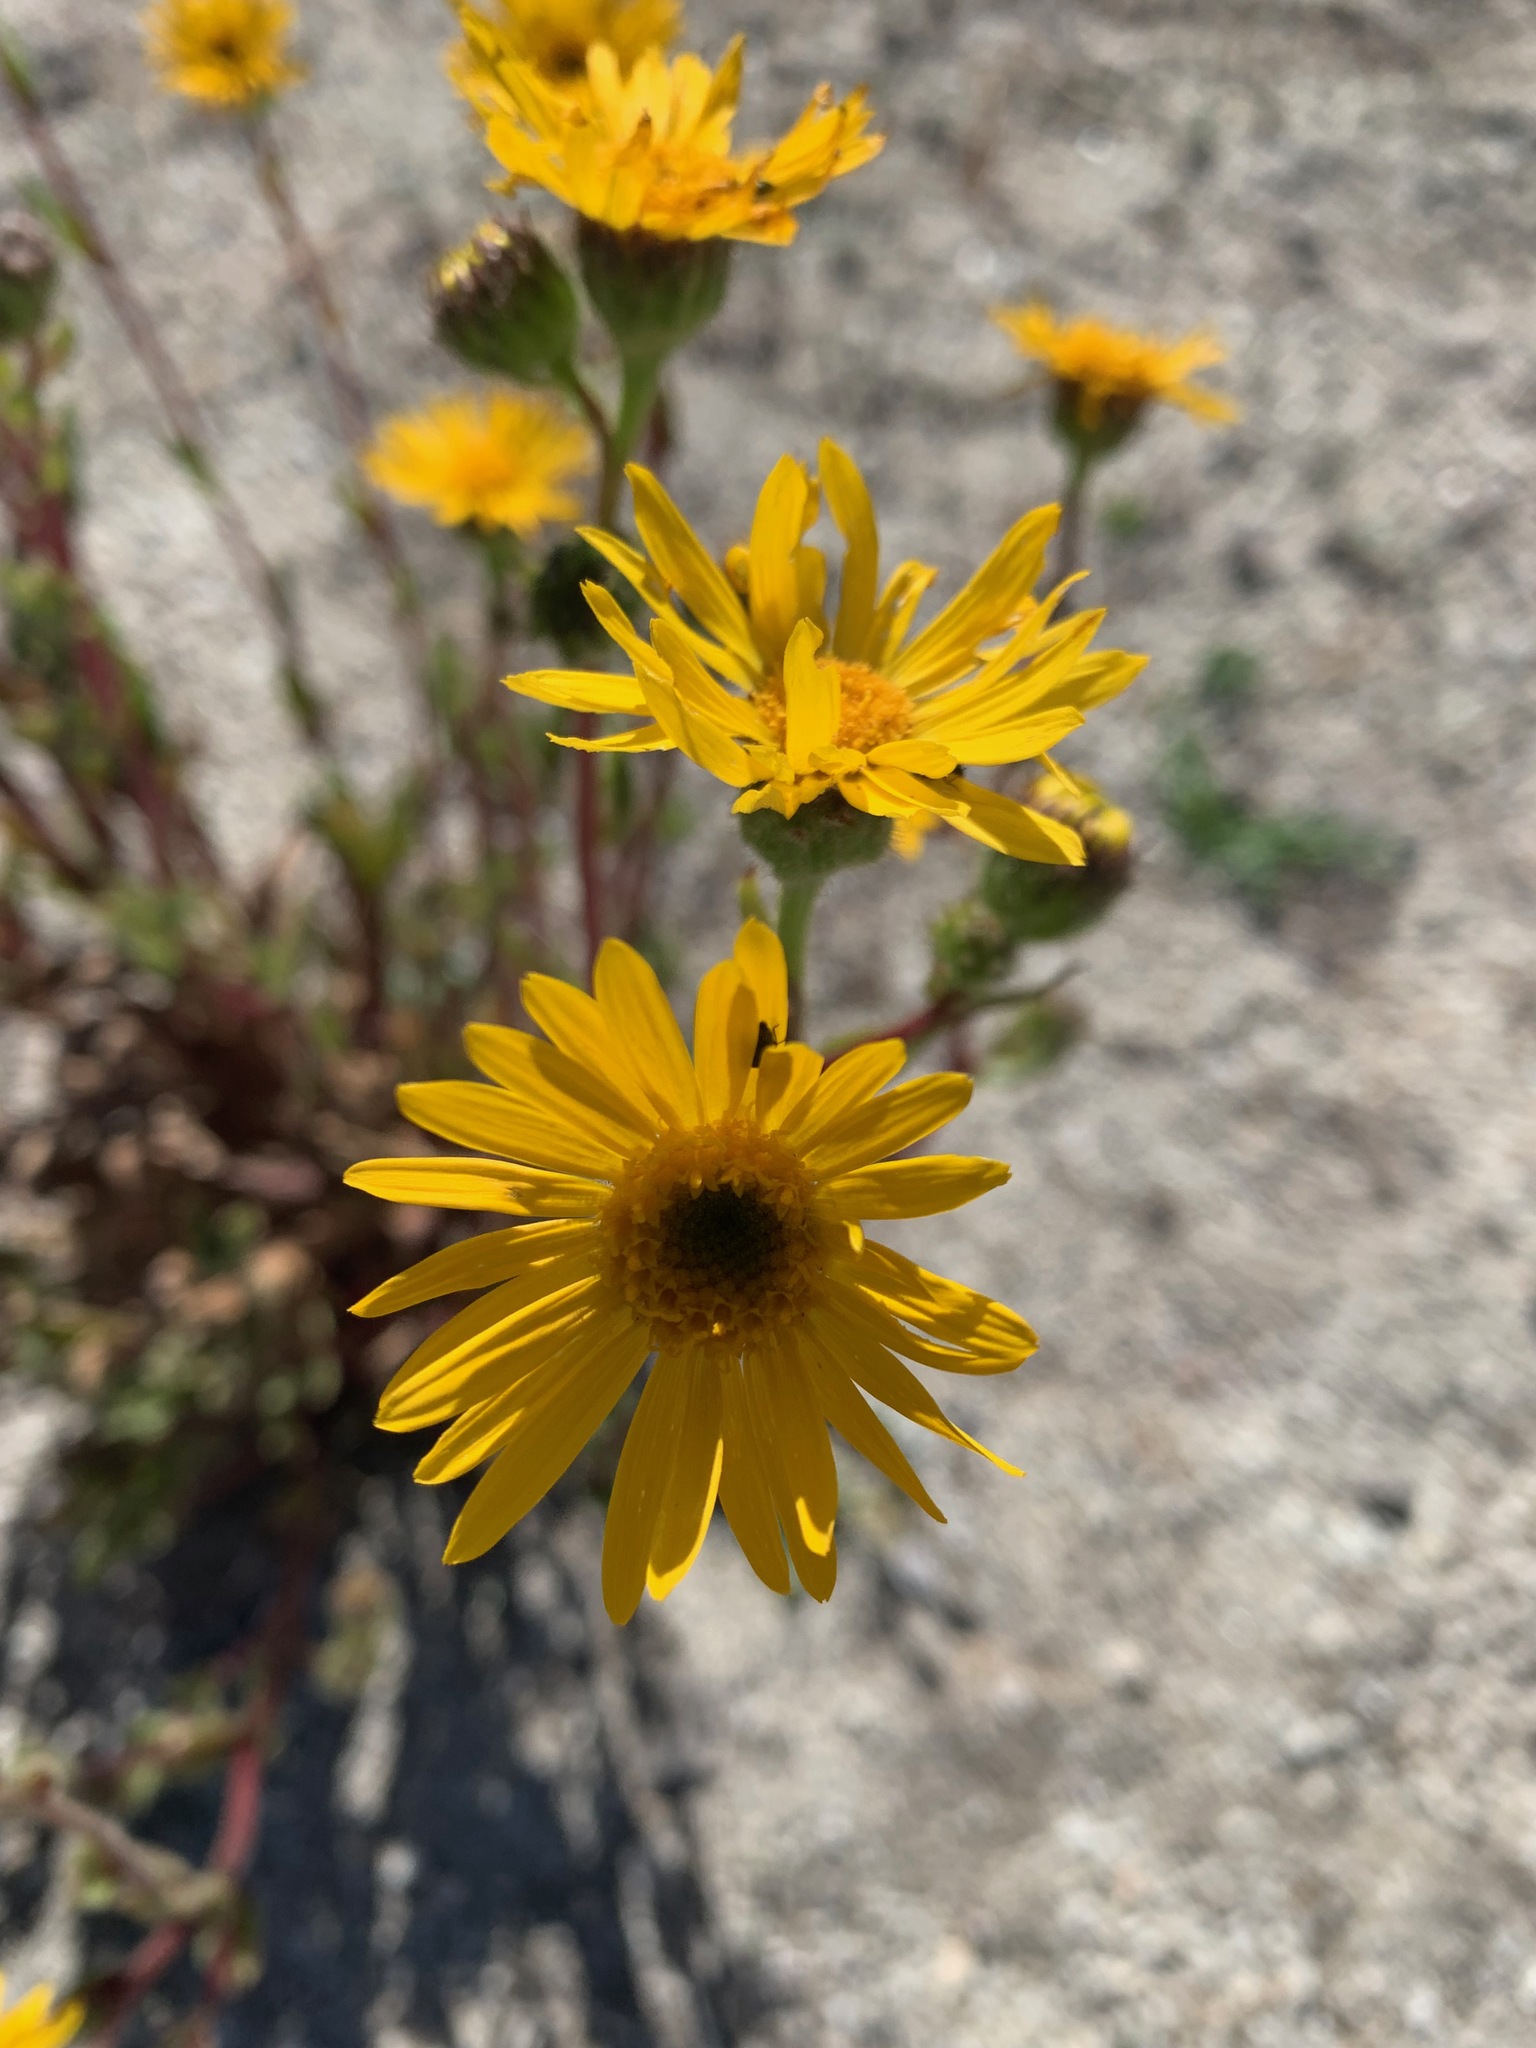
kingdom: Plantae
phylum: Tracheophyta
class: Magnoliopsida
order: Asterales
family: Asteraceae
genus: Hulsea
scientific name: Hulsea mexicana
